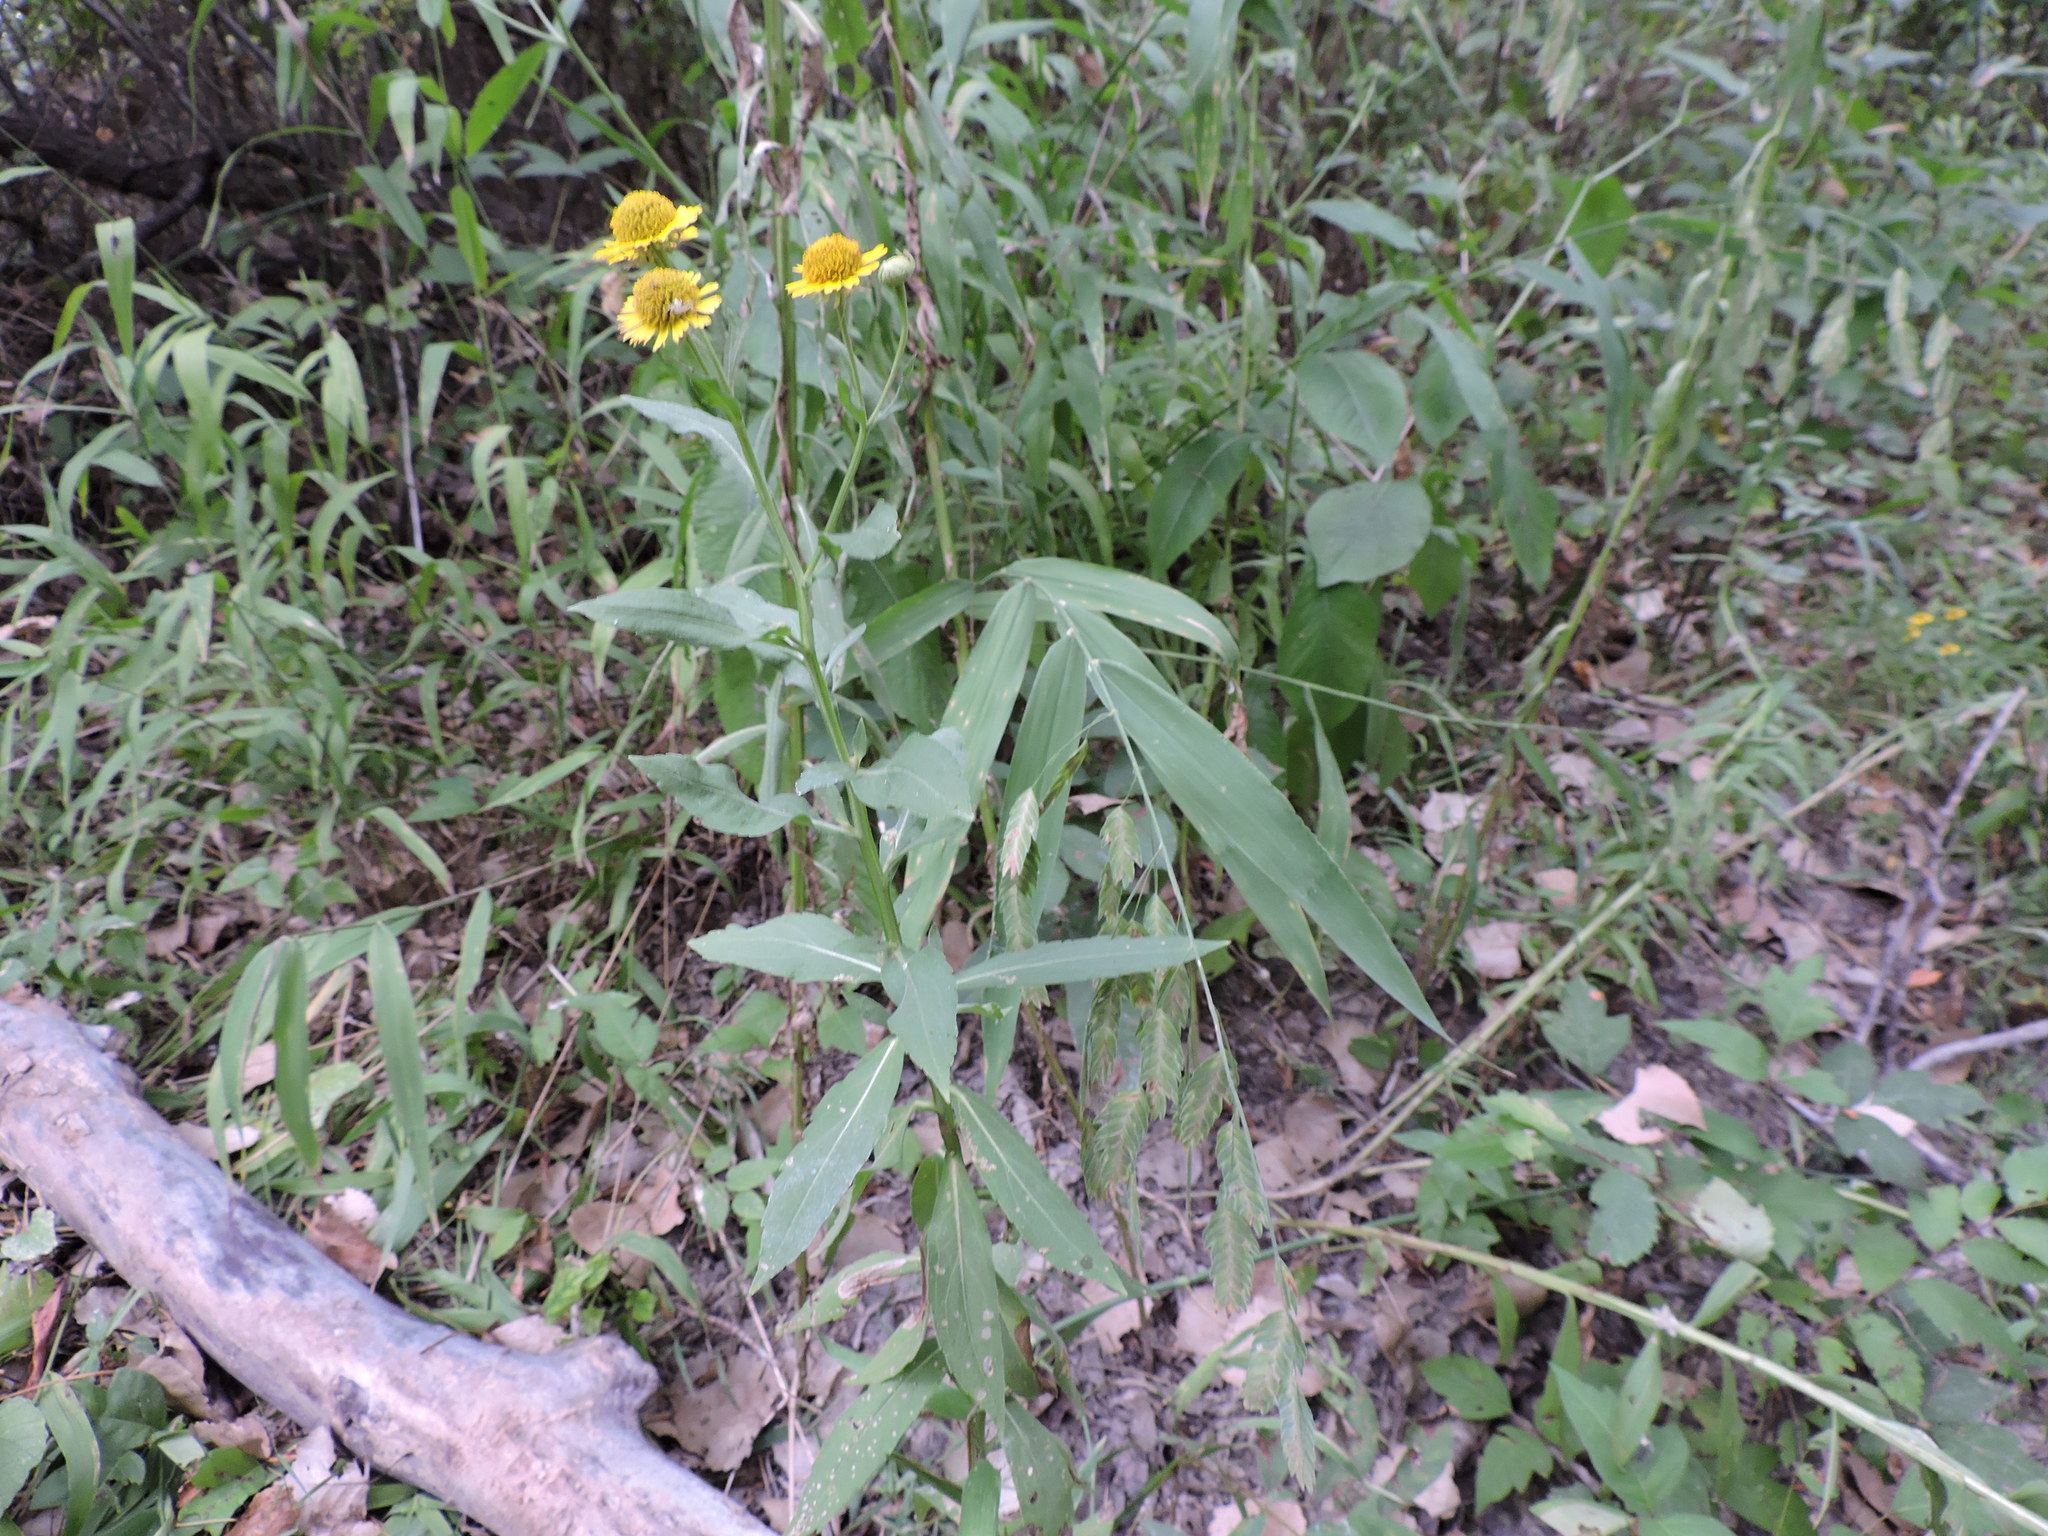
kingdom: Plantae
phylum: Tracheophyta
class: Magnoliopsida
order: Asterales
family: Asteraceae
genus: Helenium
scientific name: Helenium autumnale
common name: Sneezeweed
